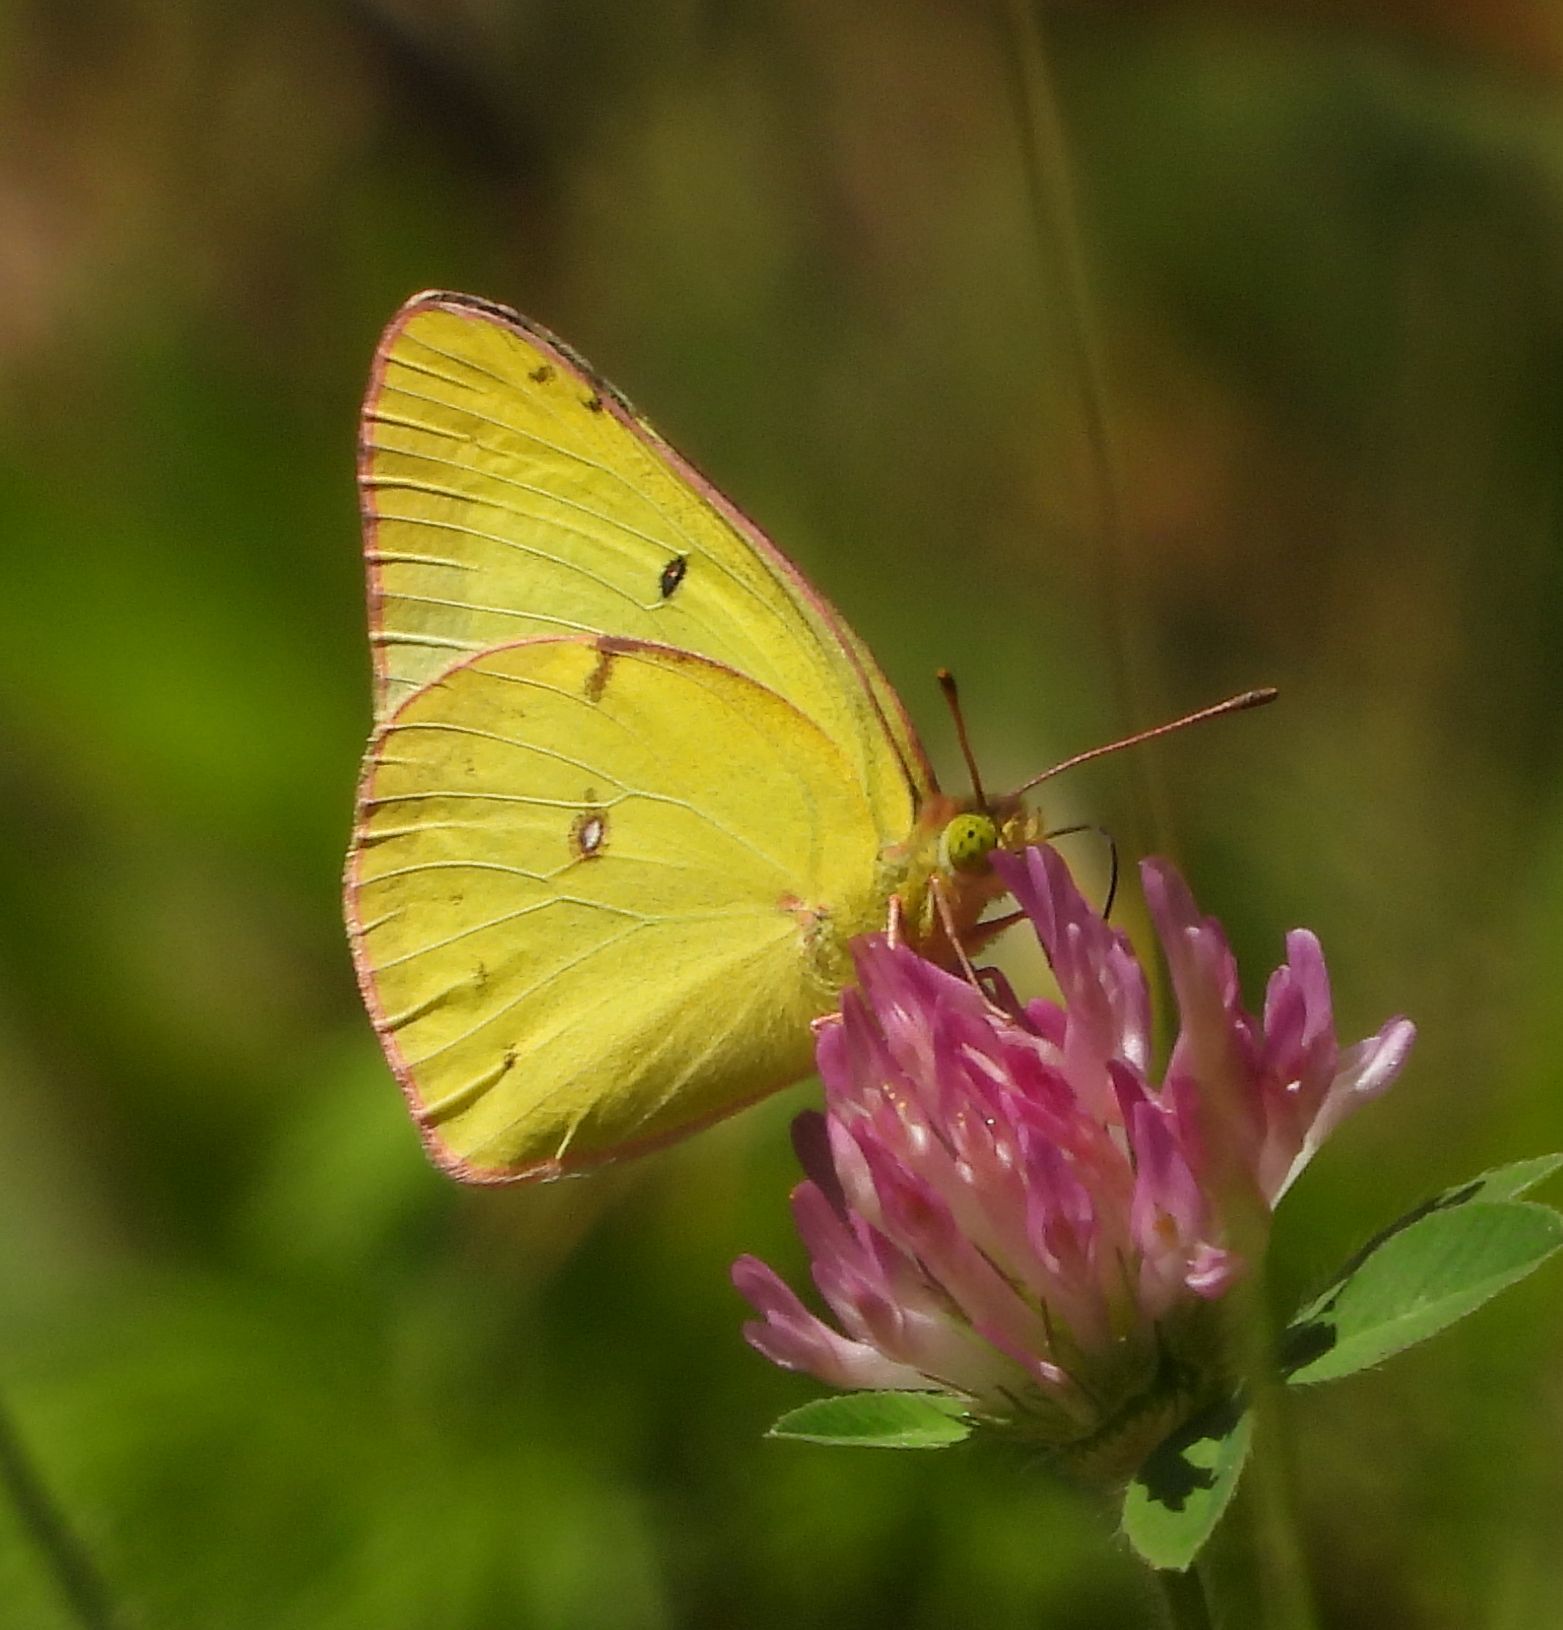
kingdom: Animalia
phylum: Arthropoda
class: Insecta
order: Lepidoptera
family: Pieridae
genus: Colias
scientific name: Colias philodice
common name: Clouded sulphur
